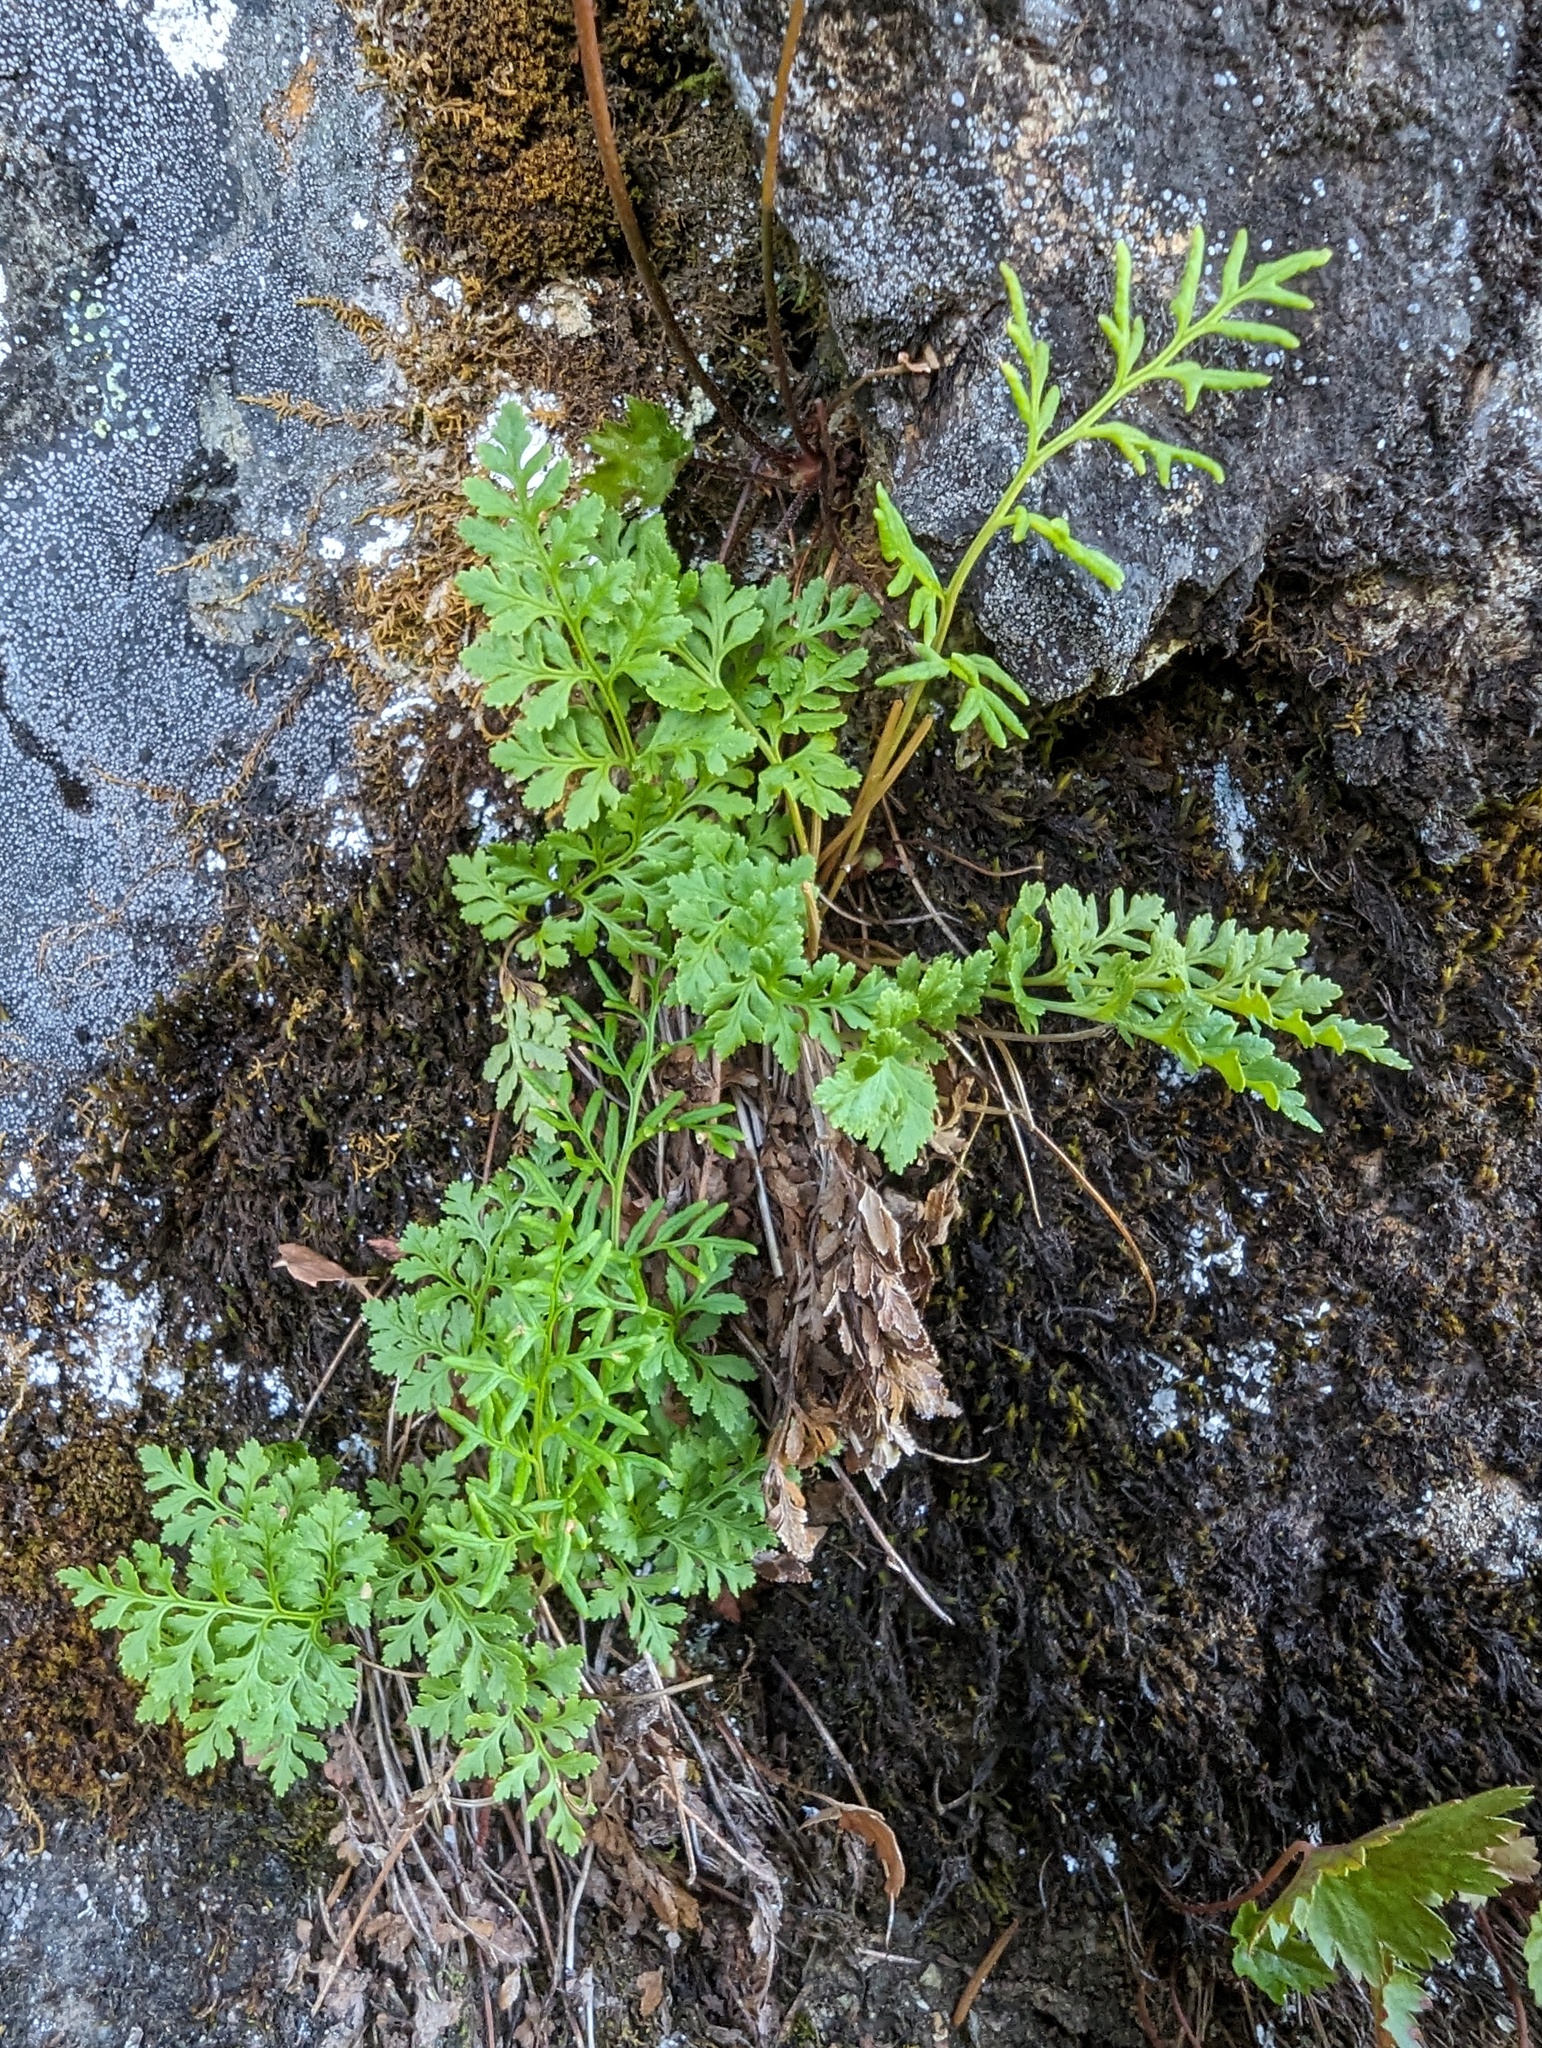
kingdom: Plantae
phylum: Tracheophyta
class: Polypodiopsida
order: Polypodiales
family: Pteridaceae
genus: Cryptogramma
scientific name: Cryptogramma acrostichoides
